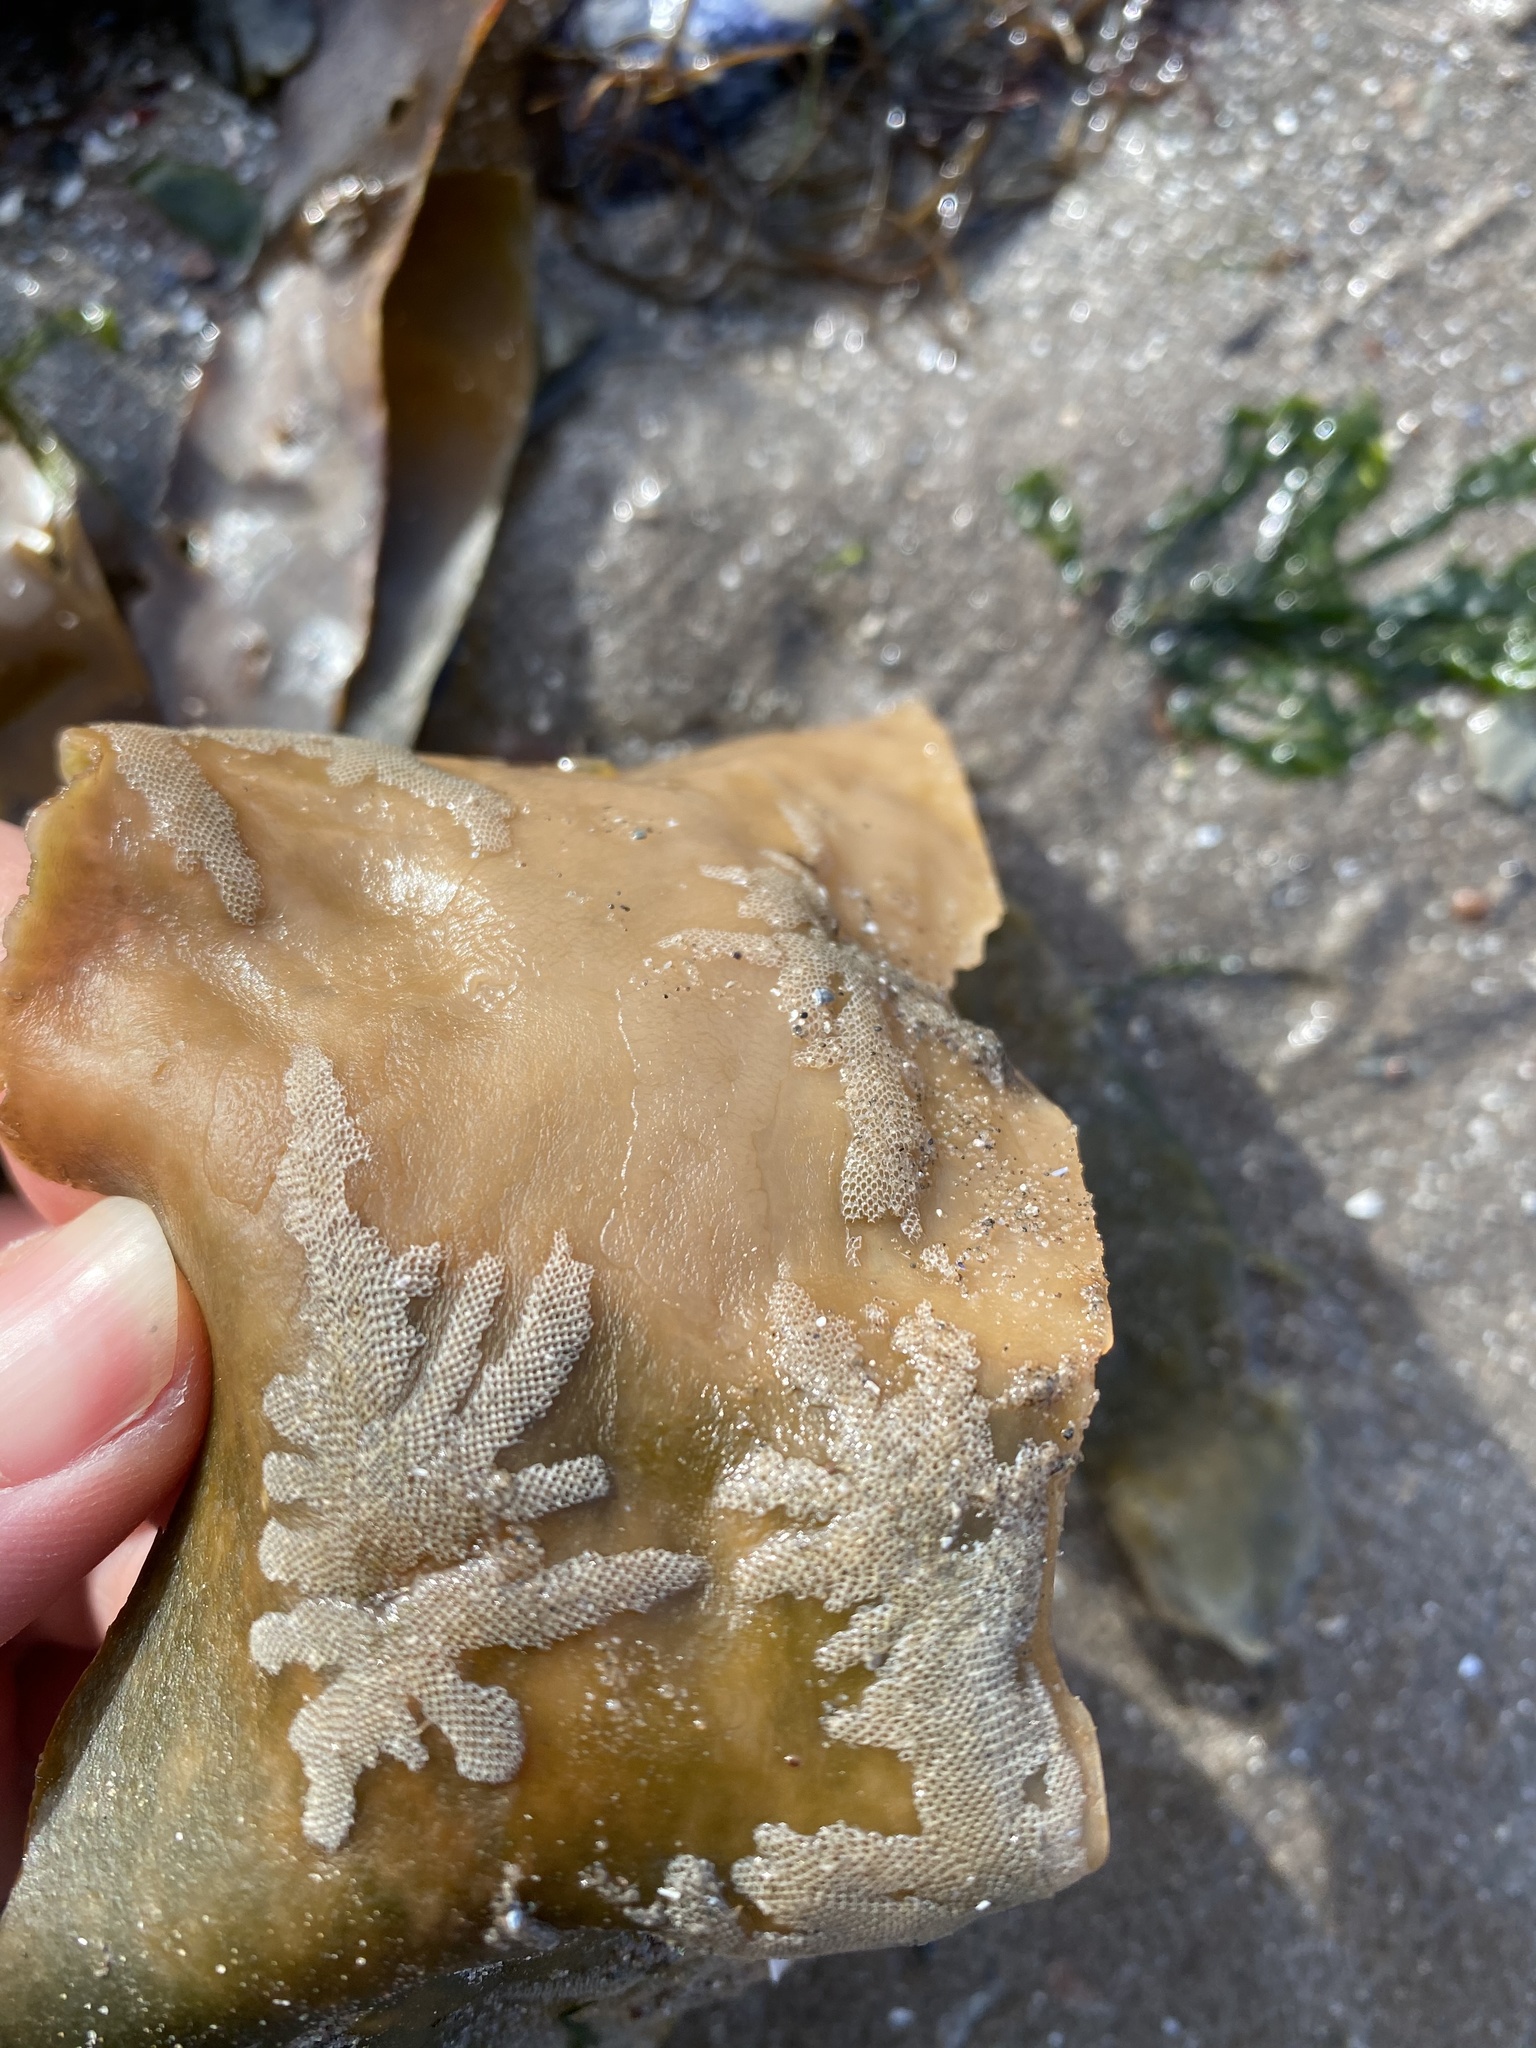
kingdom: Animalia
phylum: Bryozoa
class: Gymnolaemata
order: Cheilostomatida
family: Electridae
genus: Electra
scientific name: Electra pilosa
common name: Hairy sea-mat
